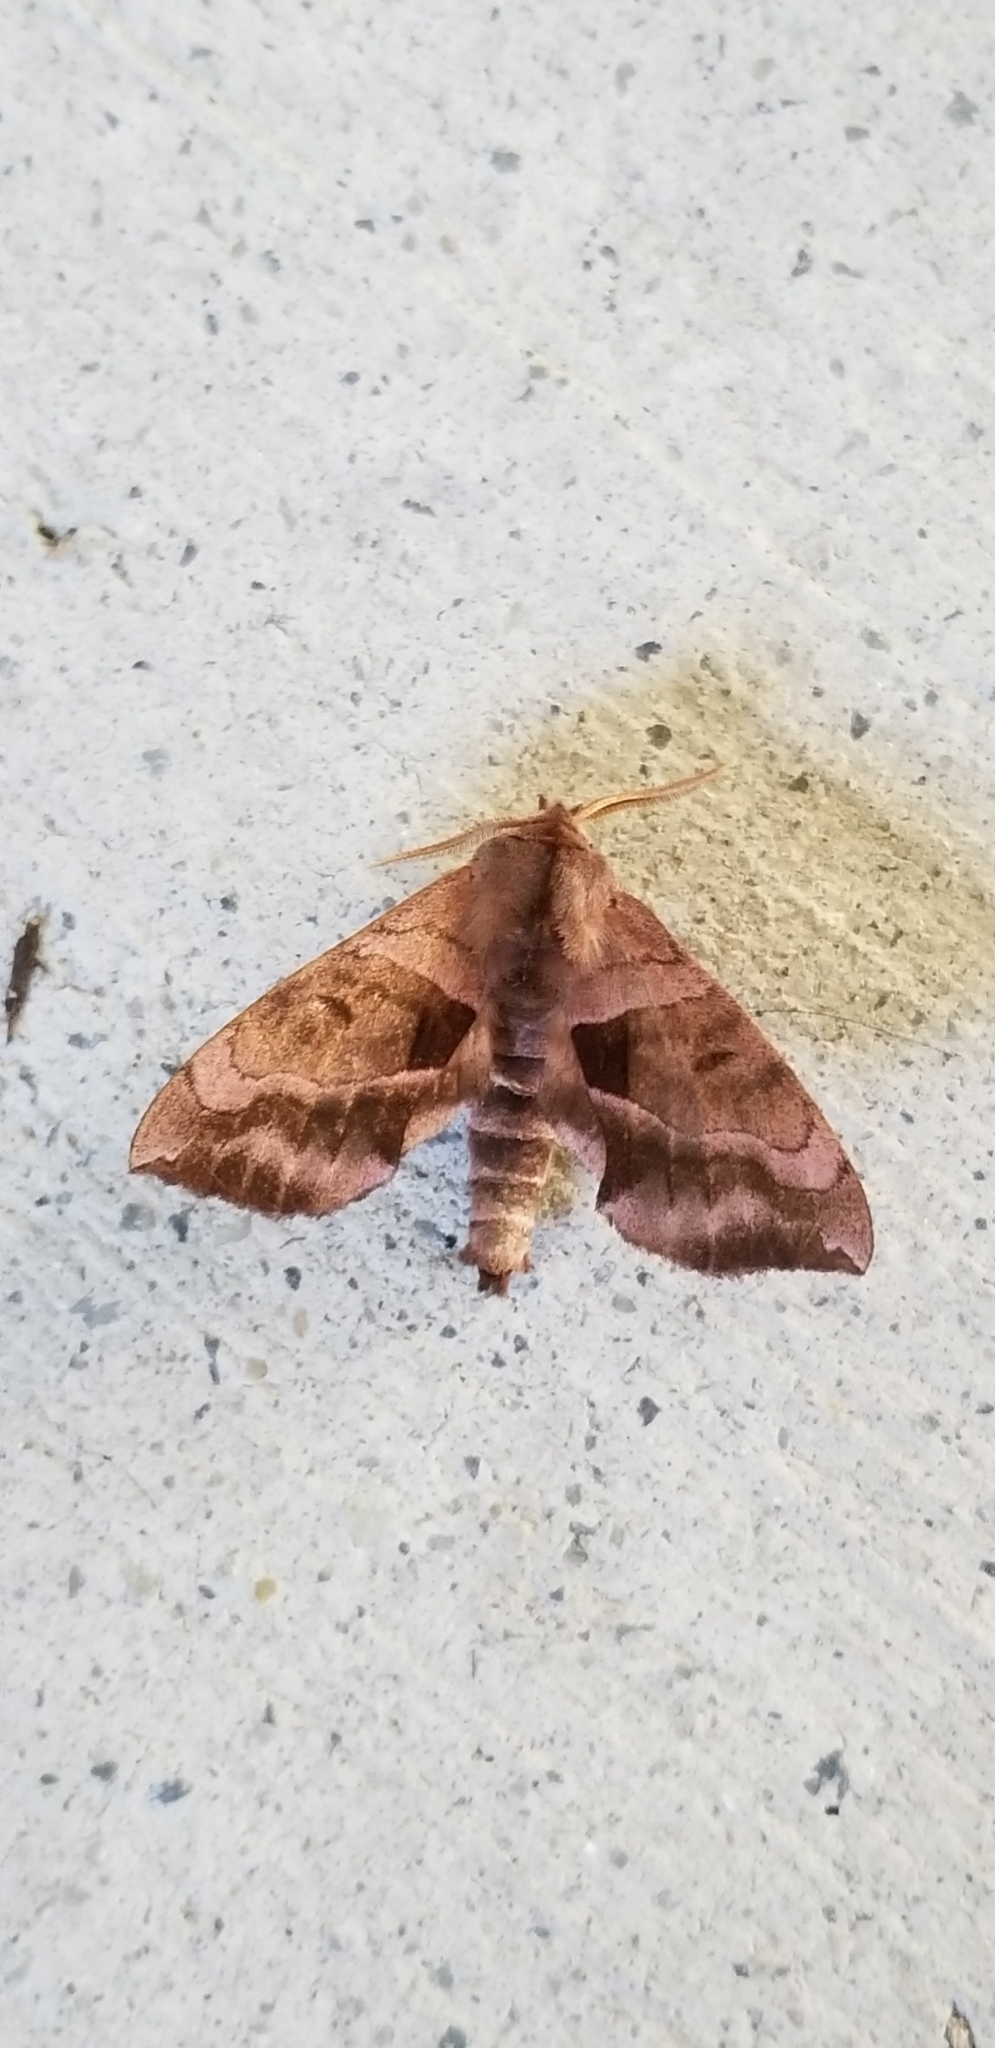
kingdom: Animalia
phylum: Arthropoda
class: Insecta
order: Lepidoptera
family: Sphingidae
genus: Amorpha
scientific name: Amorpha juglandis
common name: Walnut sphinx
